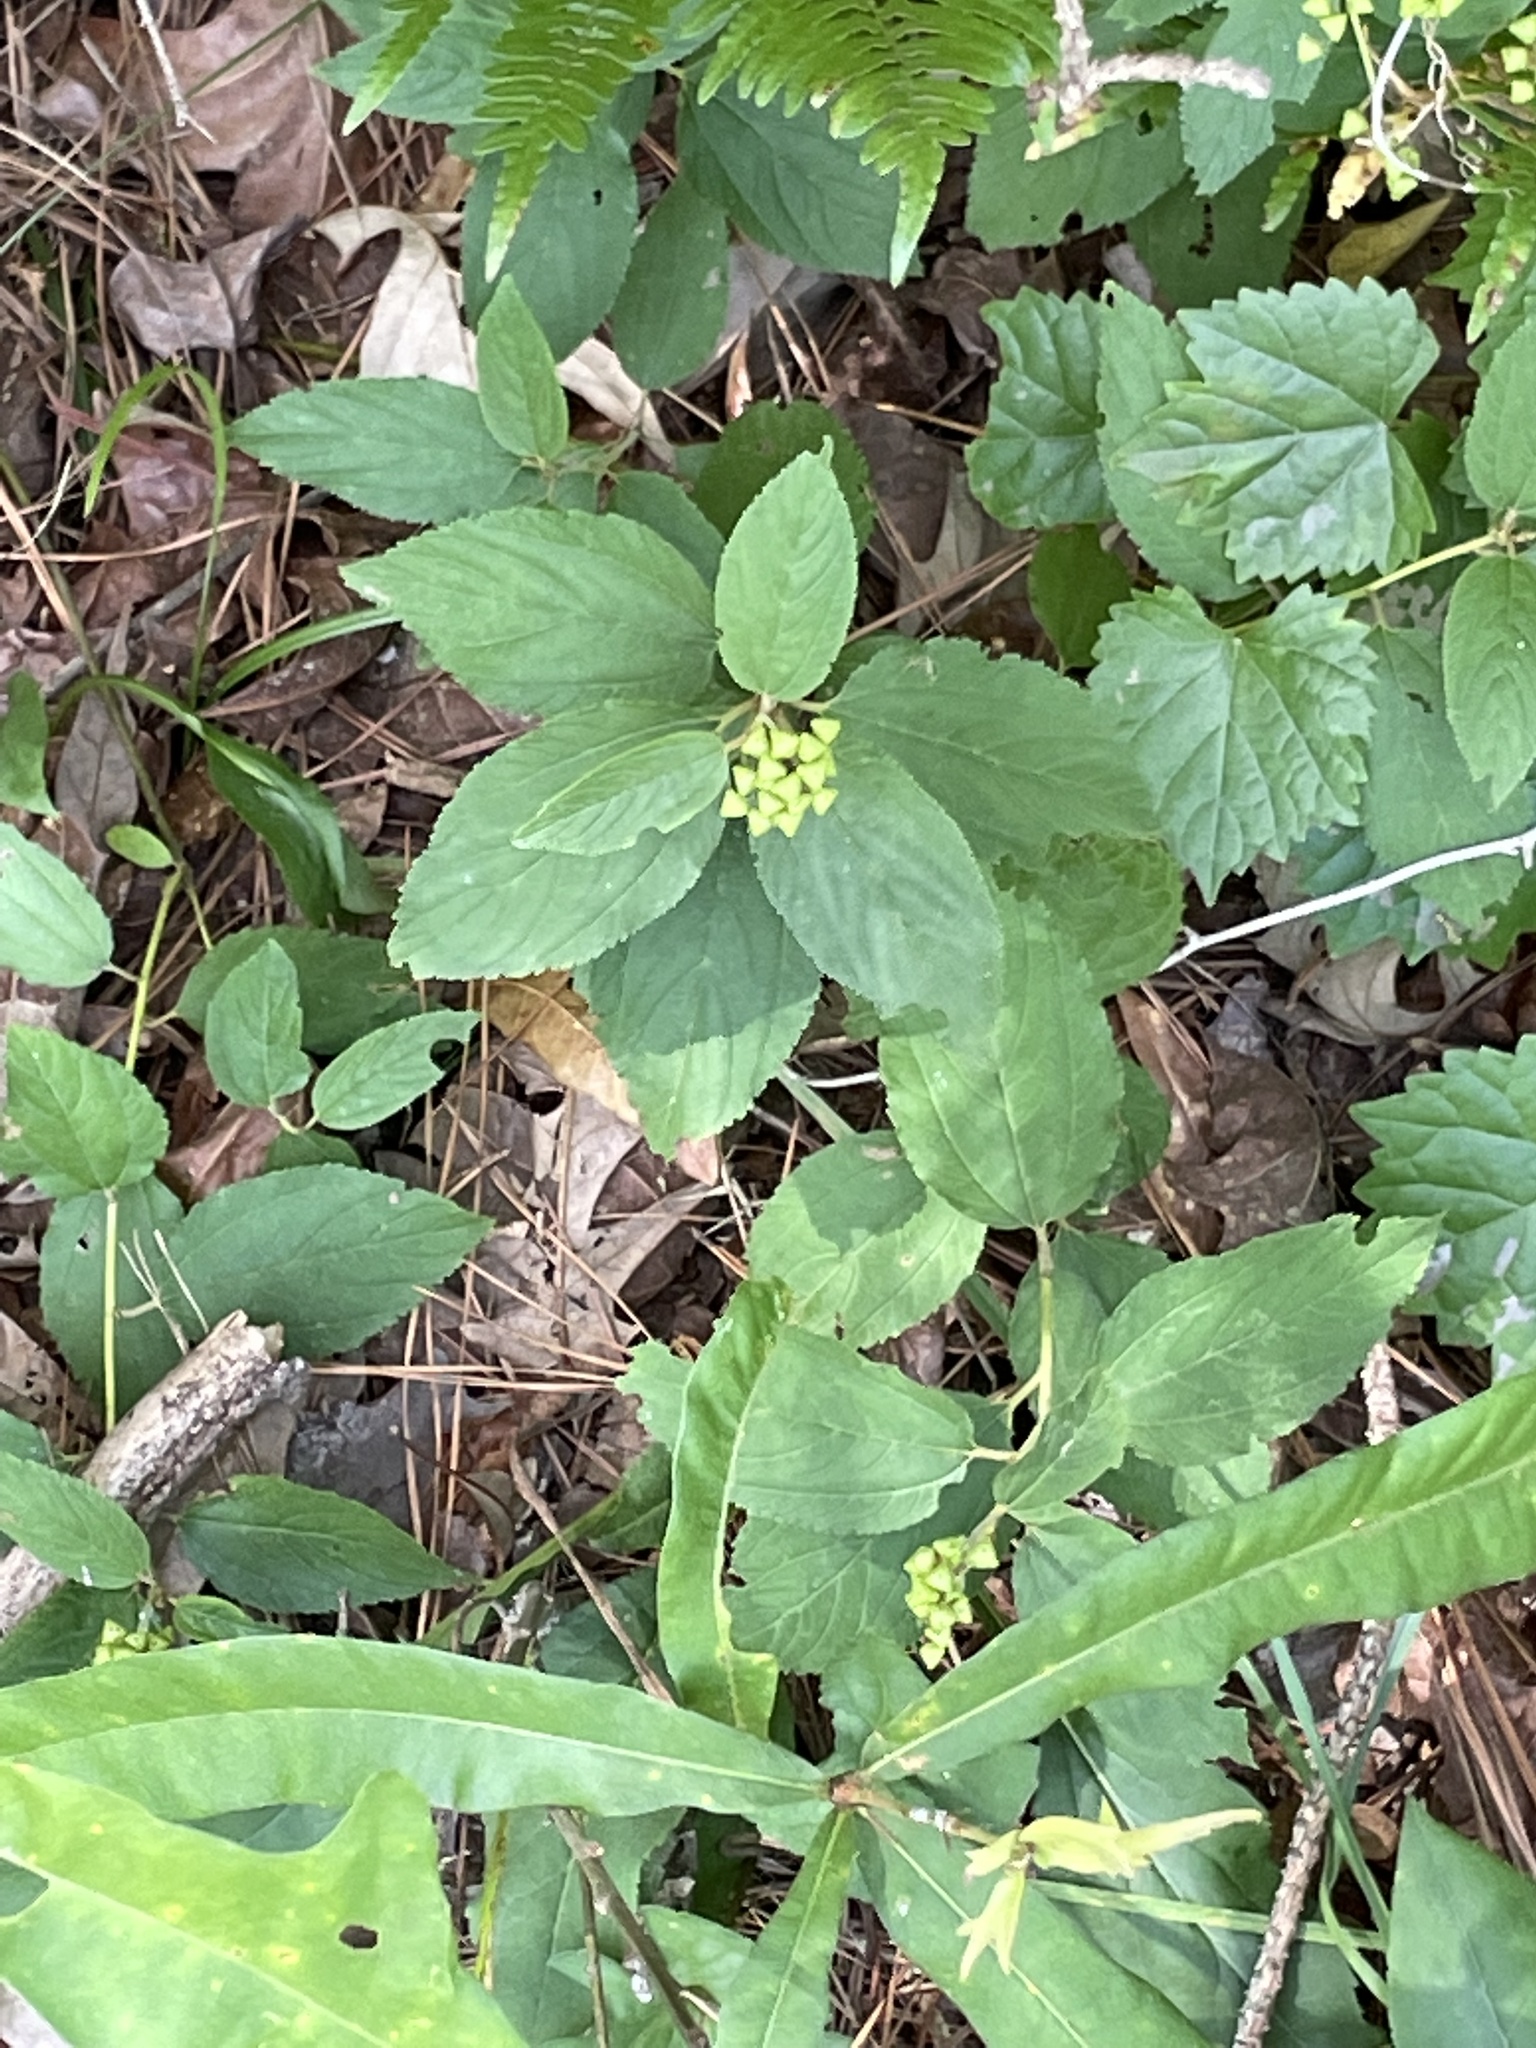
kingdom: Plantae
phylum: Tracheophyta
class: Magnoliopsida
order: Rosales
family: Rhamnaceae
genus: Ceanothus
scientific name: Ceanothus americanus
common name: Redroot
